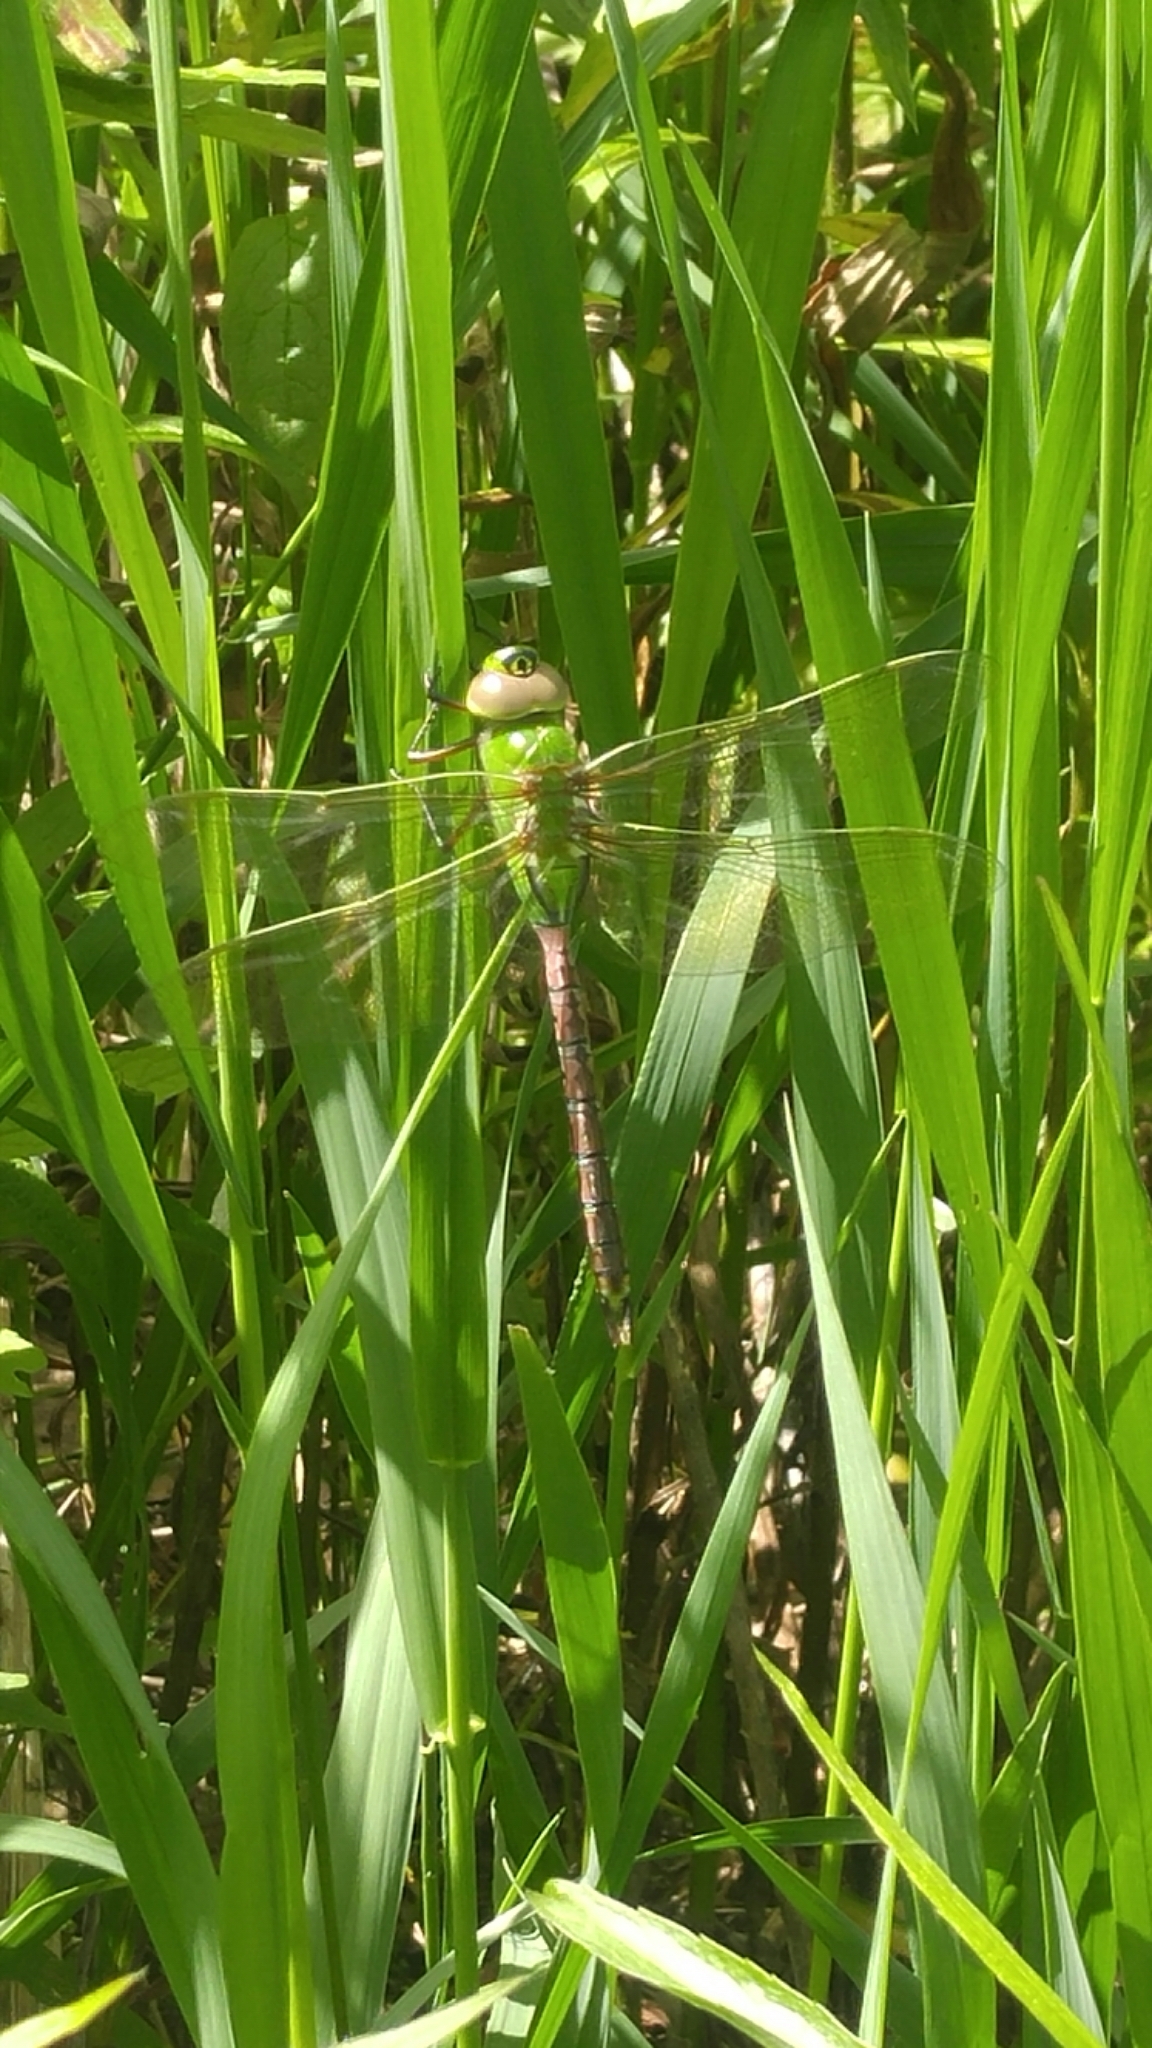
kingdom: Animalia
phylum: Arthropoda
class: Insecta
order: Odonata
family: Aeshnidae
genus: Anax
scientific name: Anax junius
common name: Common green darner
